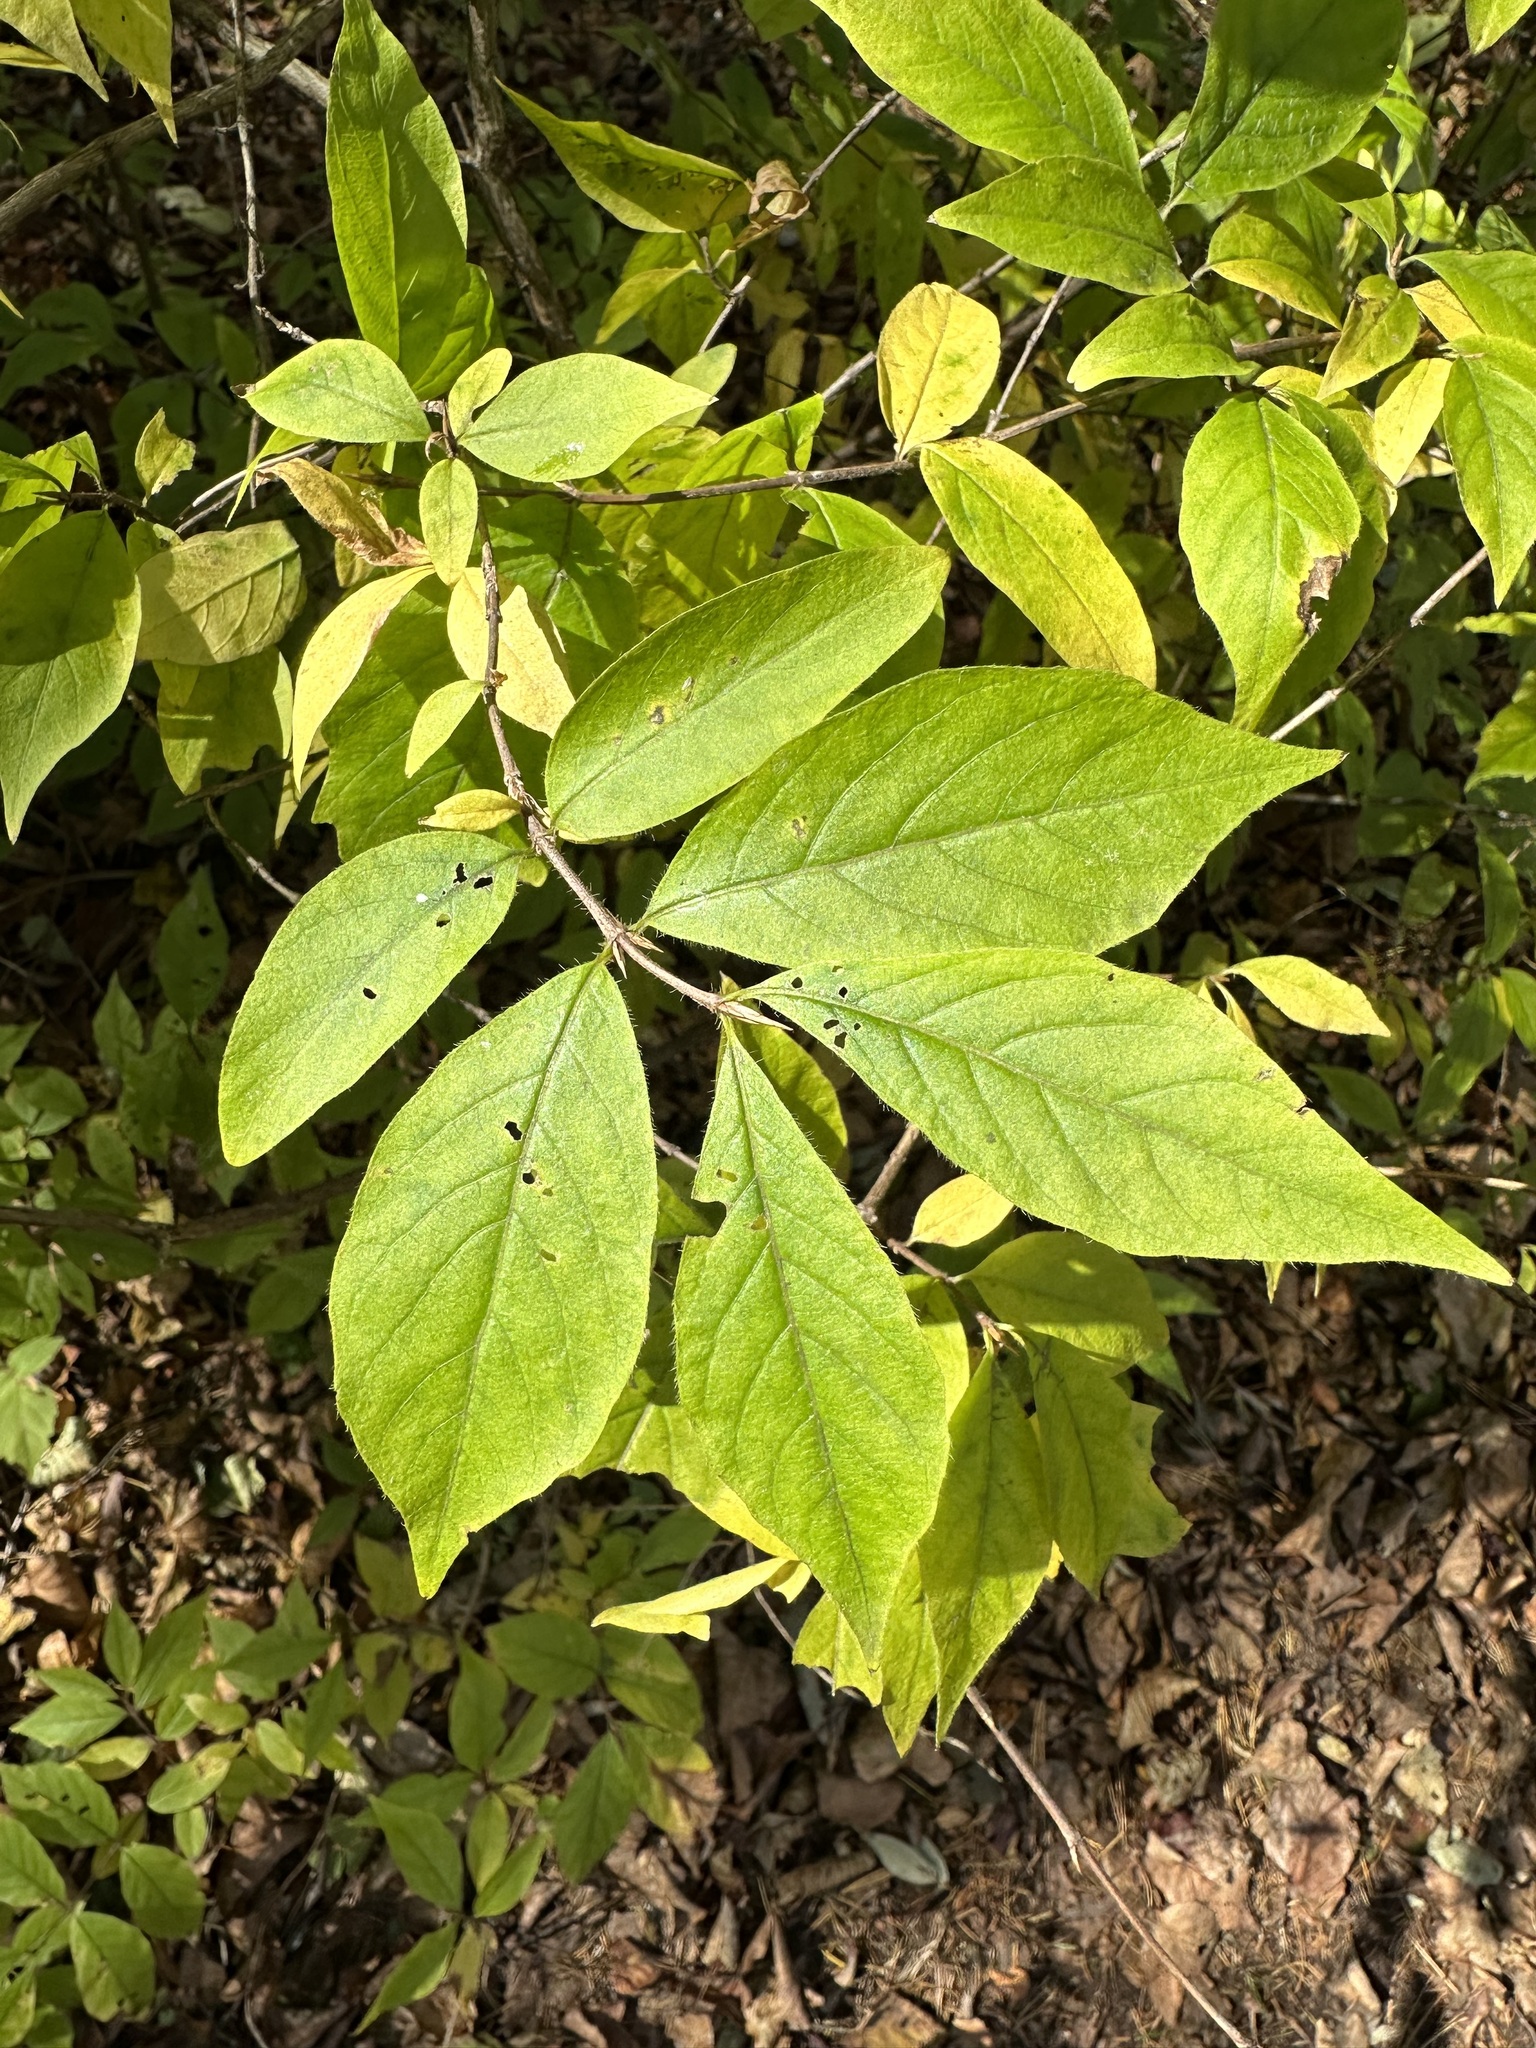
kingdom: Plantae
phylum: Tracheophyta
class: Magnoliopsida
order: Dipsacales
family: Caprifoliaceae
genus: Lonicera
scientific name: Lonicera chrysantha
